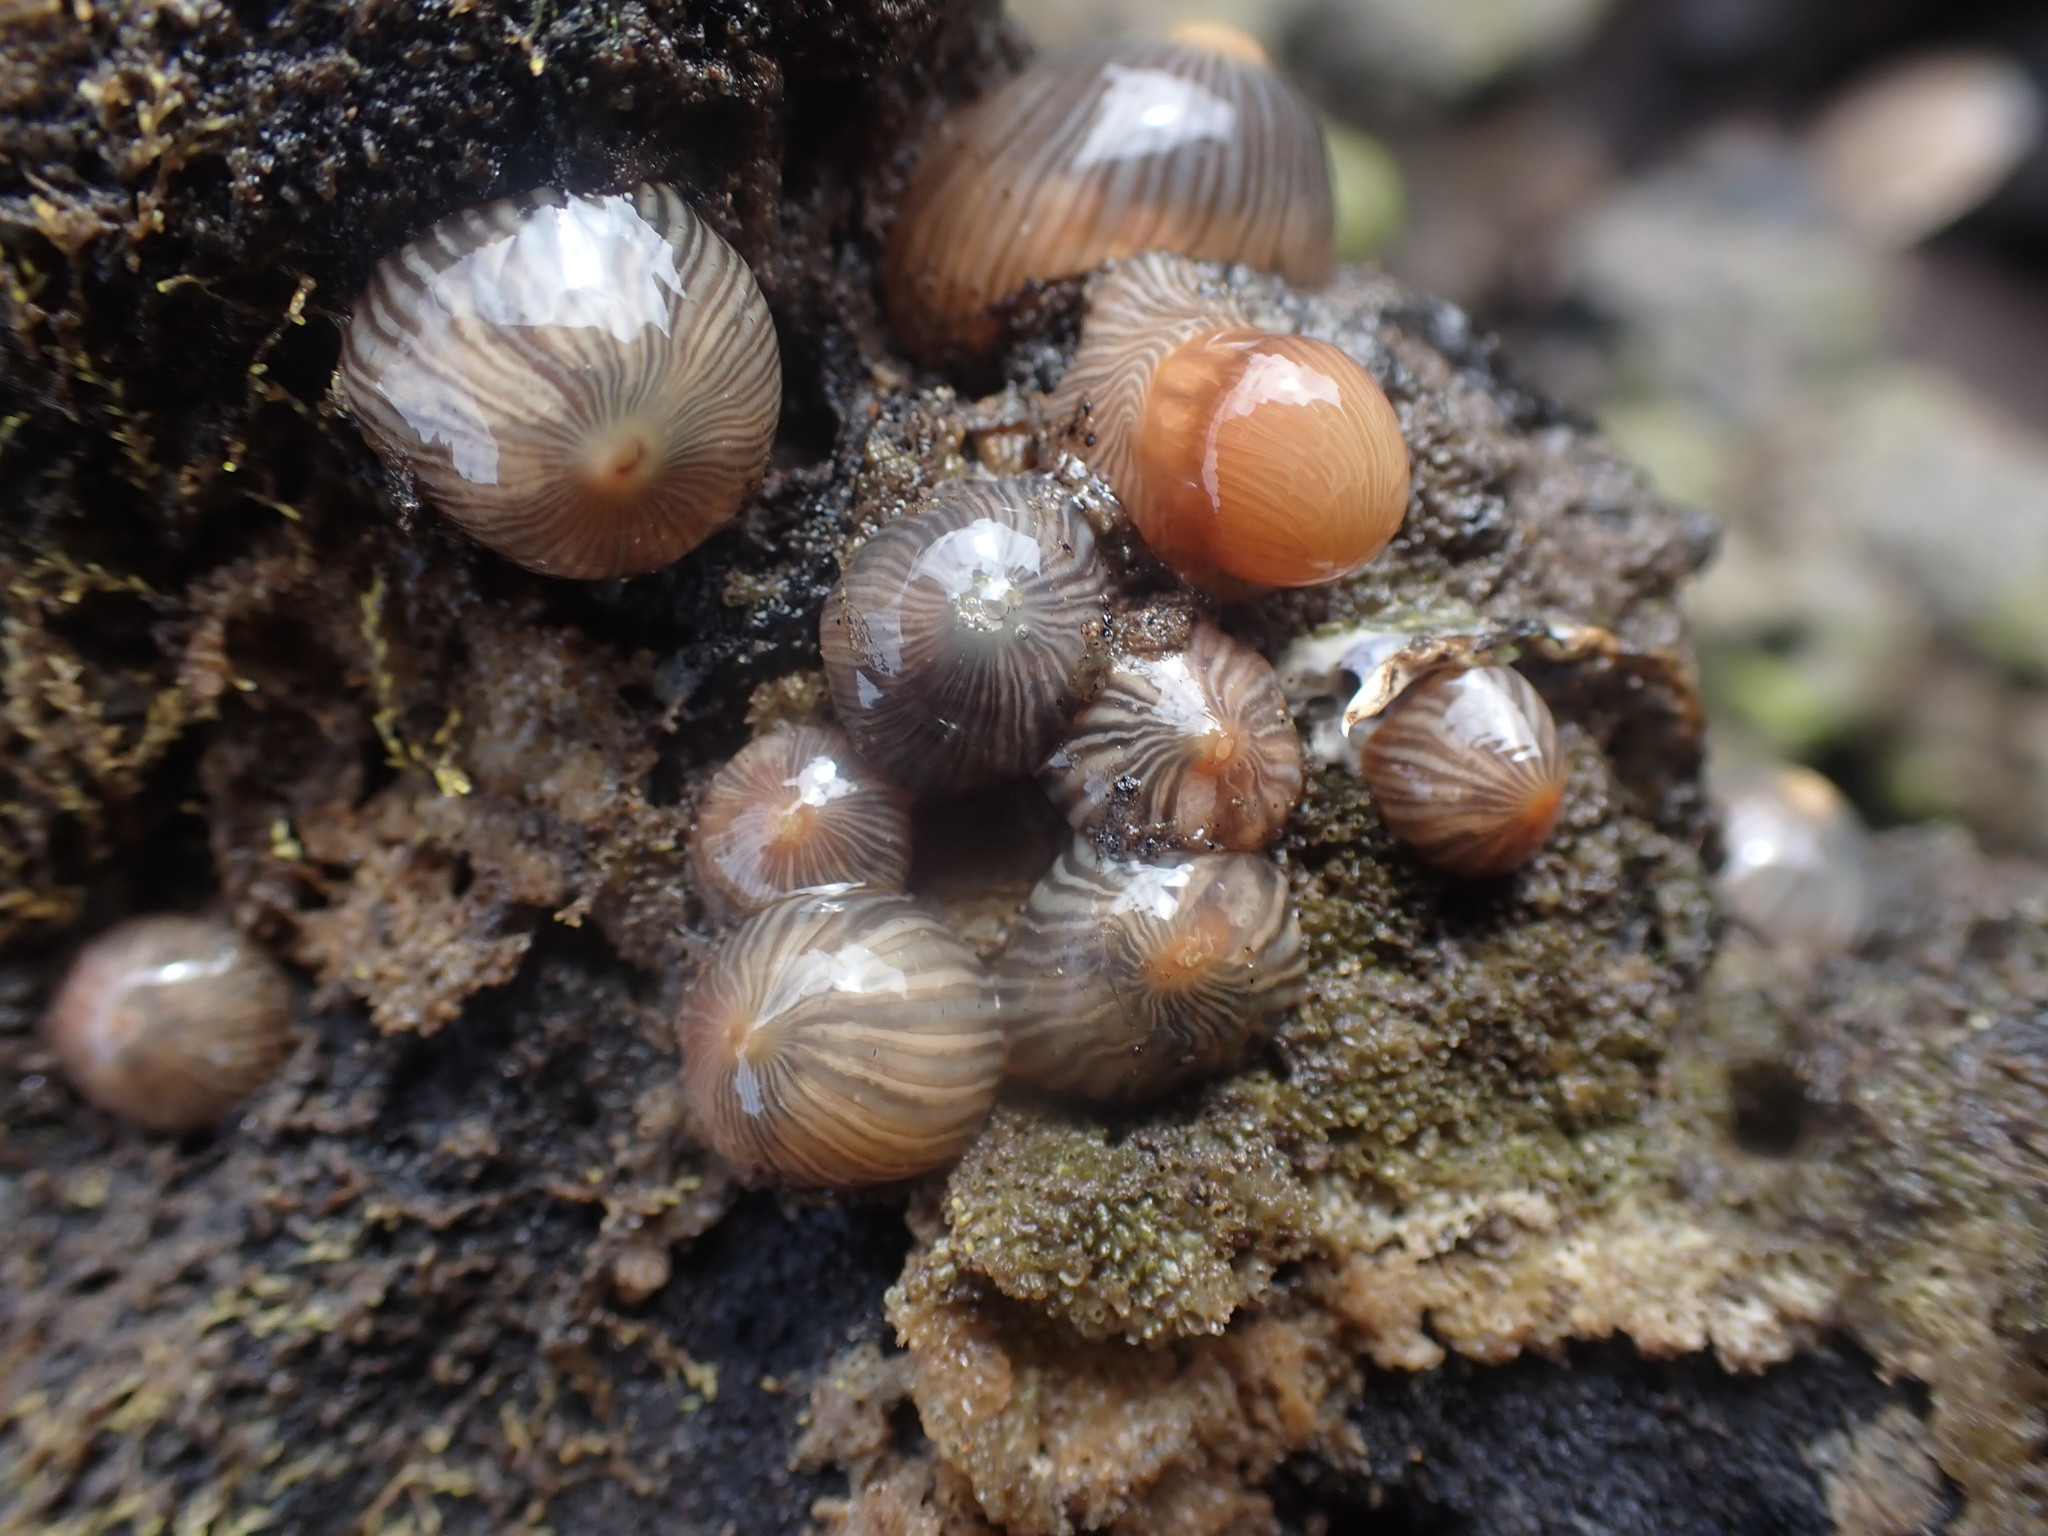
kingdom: Animalia
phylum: Cnidaria
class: Anthozoa
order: Actiniaria
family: Diadumenidae
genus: Diadumene
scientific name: Diadumene neozelanica
